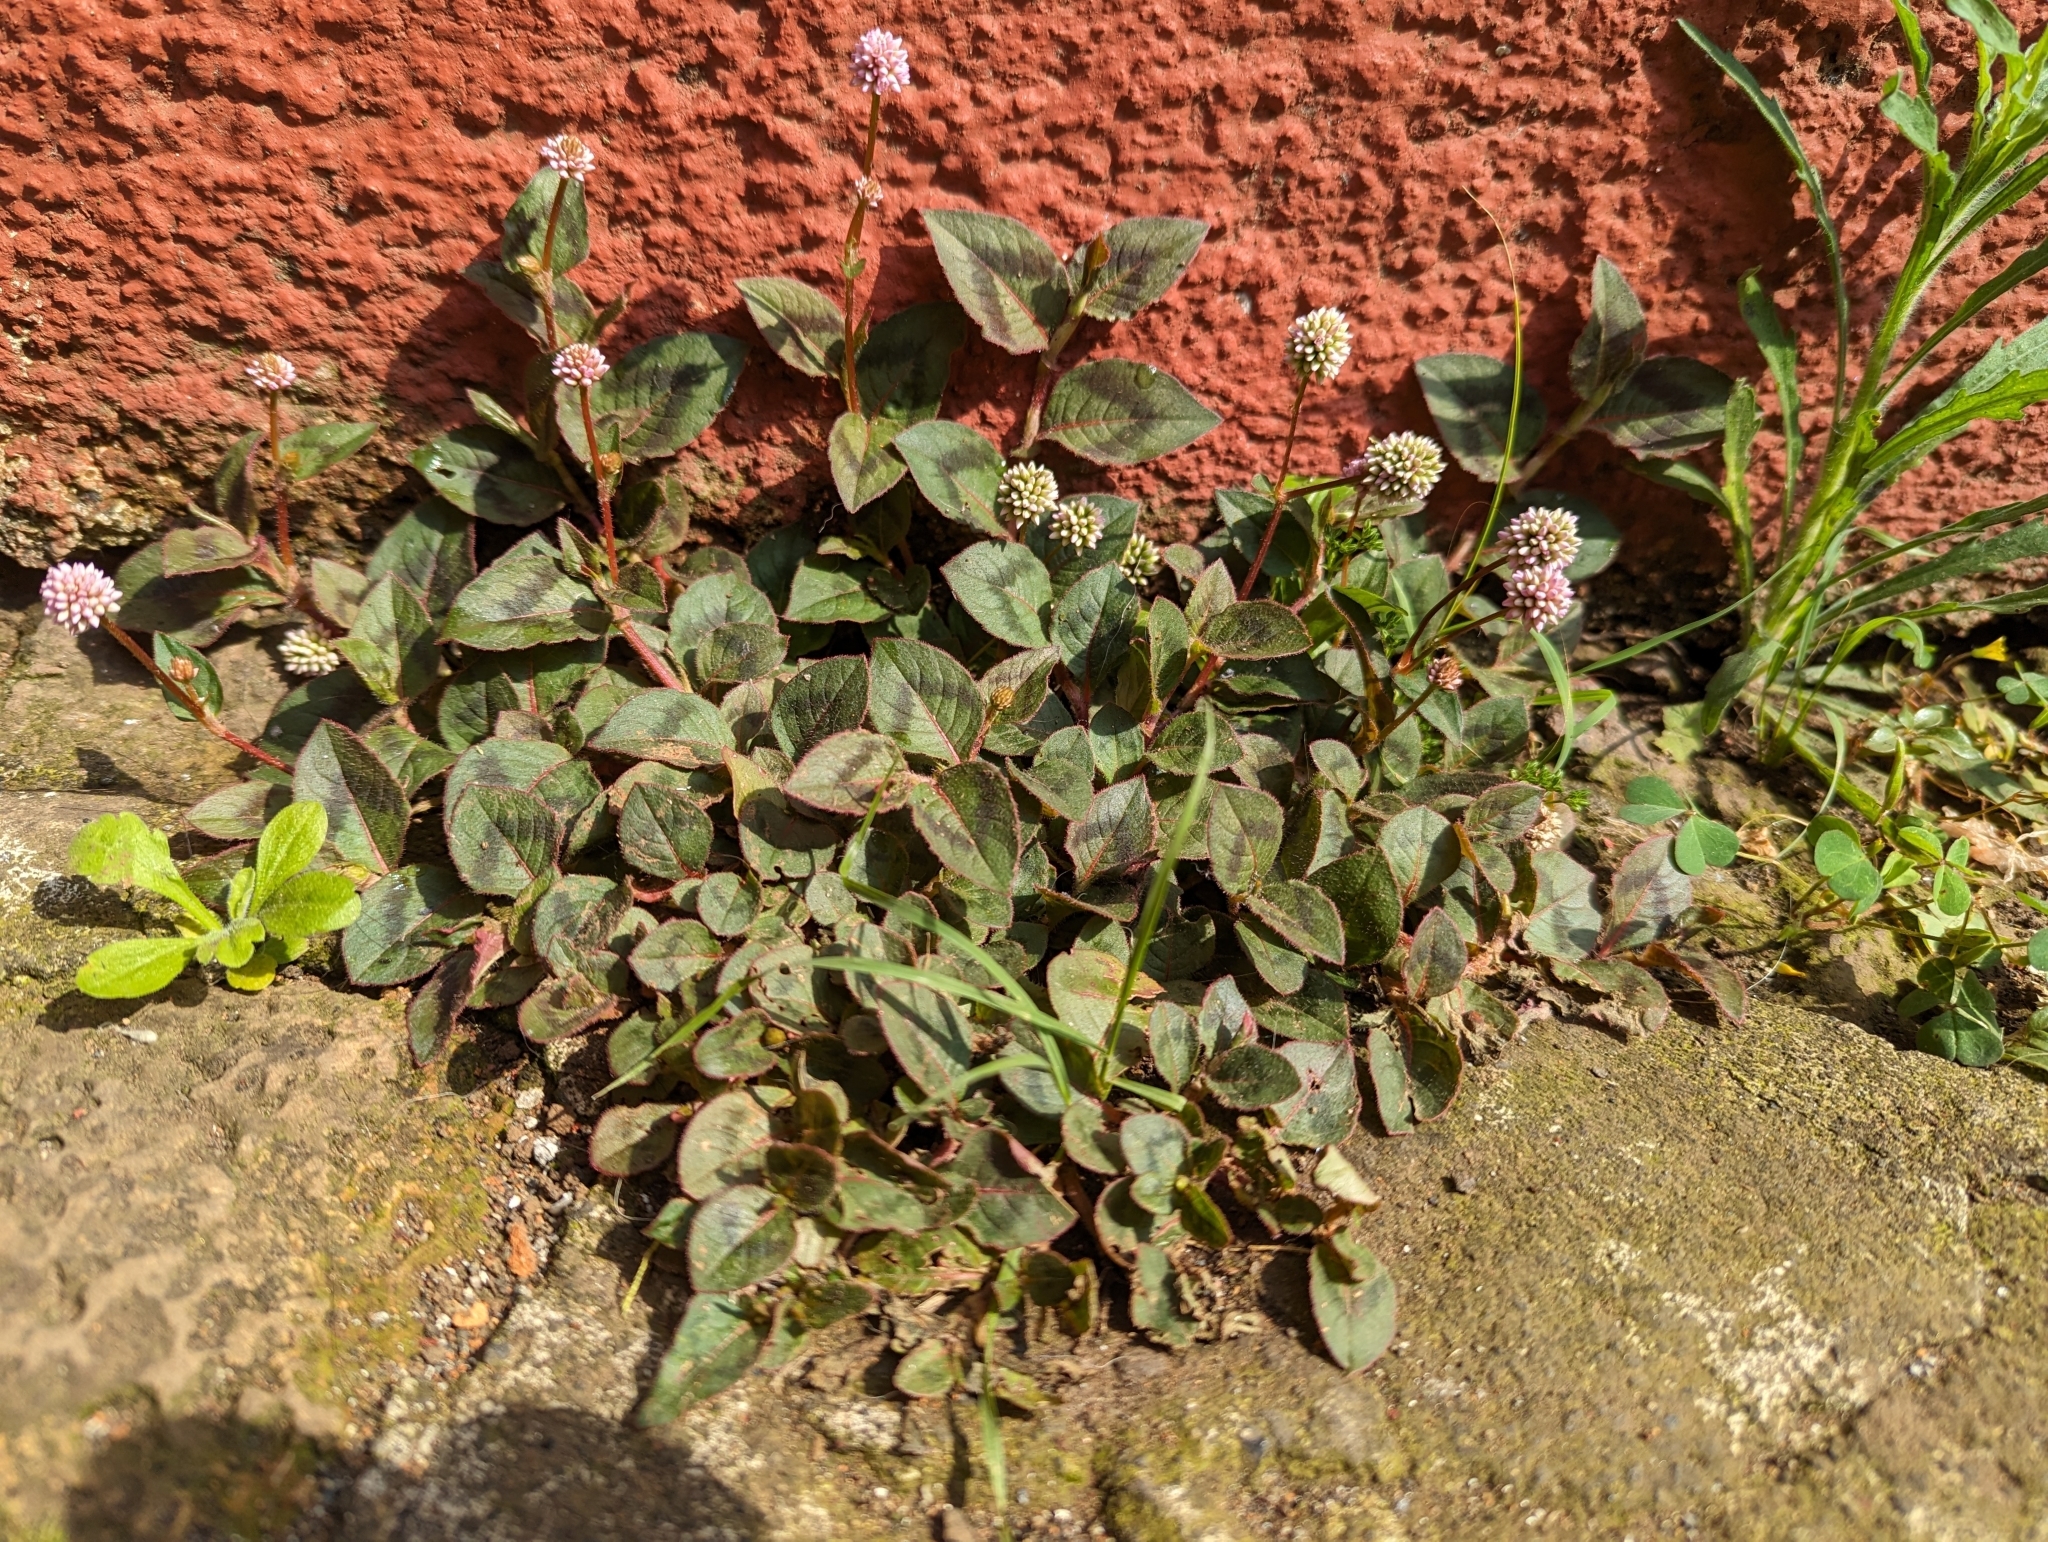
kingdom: Plantae
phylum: Tracheophyta
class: Magnoliopsida
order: Caryophyllales
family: Polygonaceae
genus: Persicaria
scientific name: Persicaria capitata
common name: Pinkhead smartweed
